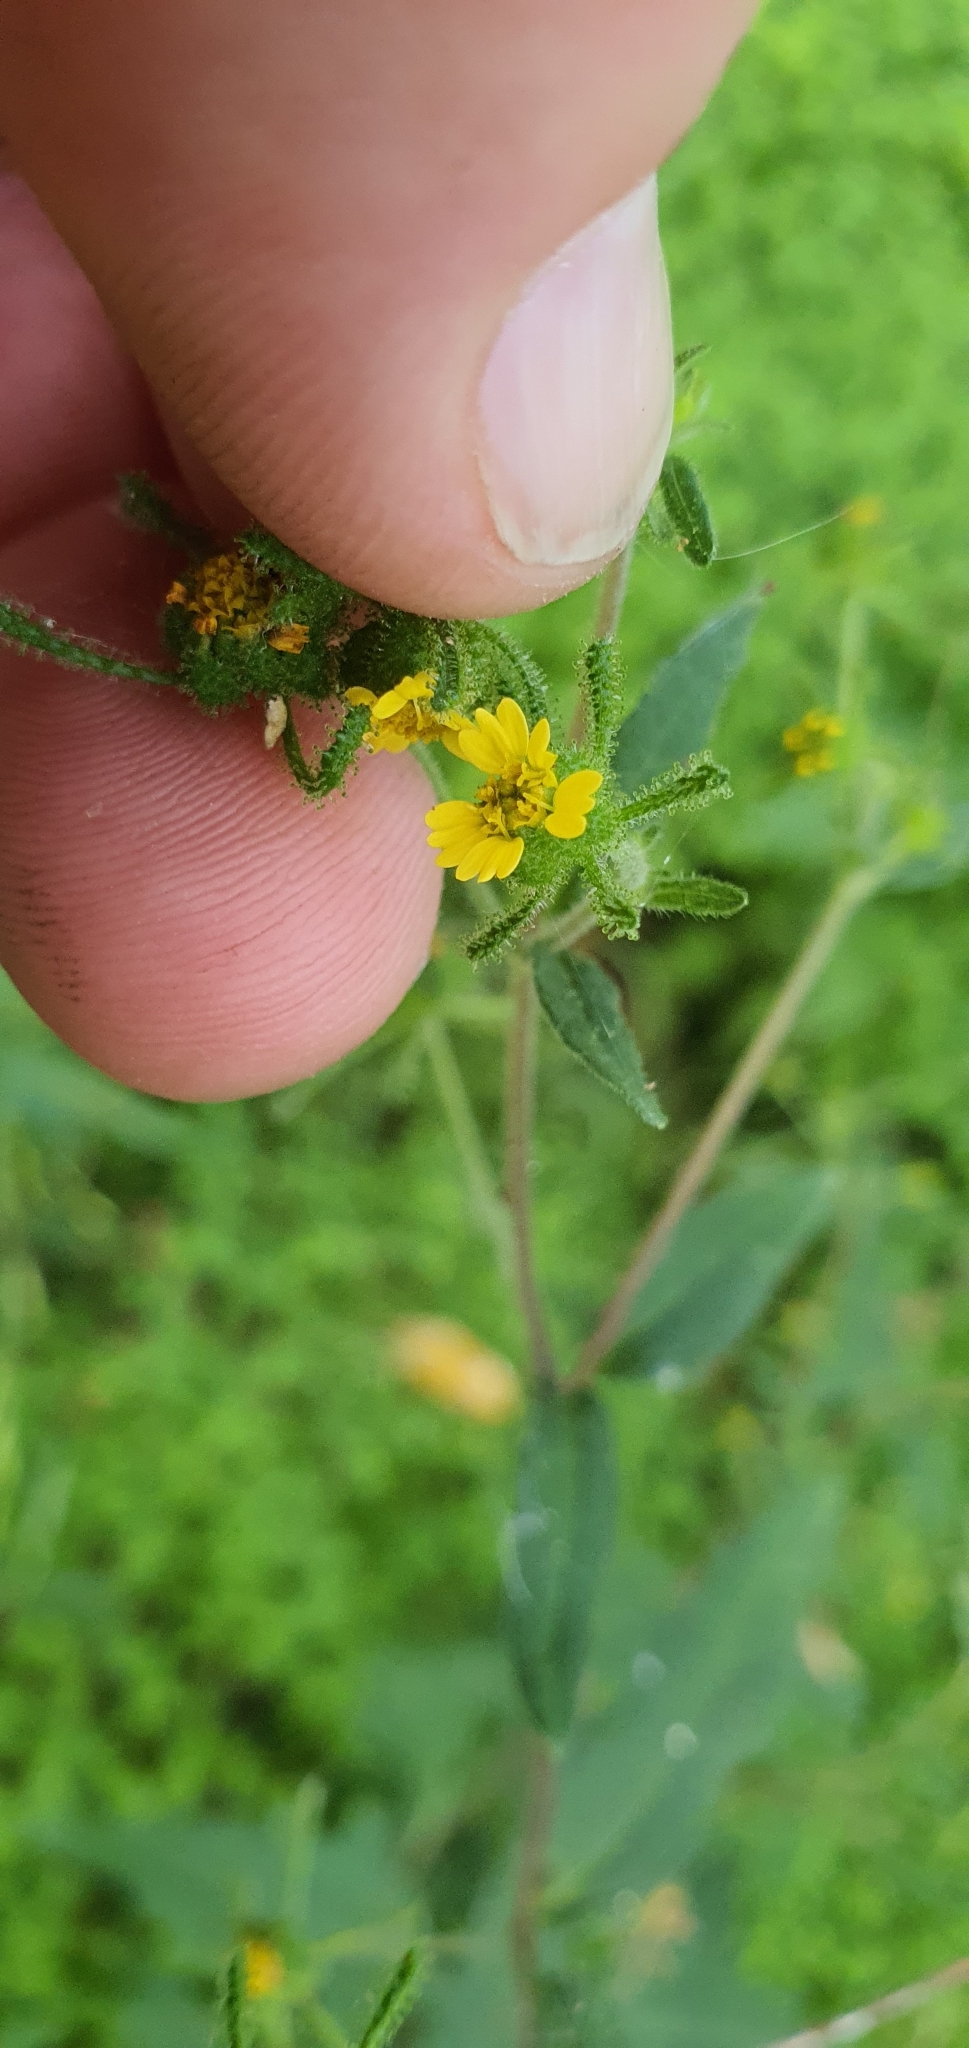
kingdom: Plantae
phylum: Tracheophyta
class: Magnoliopsida
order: Asterales
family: Asteraceae
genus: Sigesbeckia
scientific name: Sigesbeckia orientalis
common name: Eastern st paul's-wort
